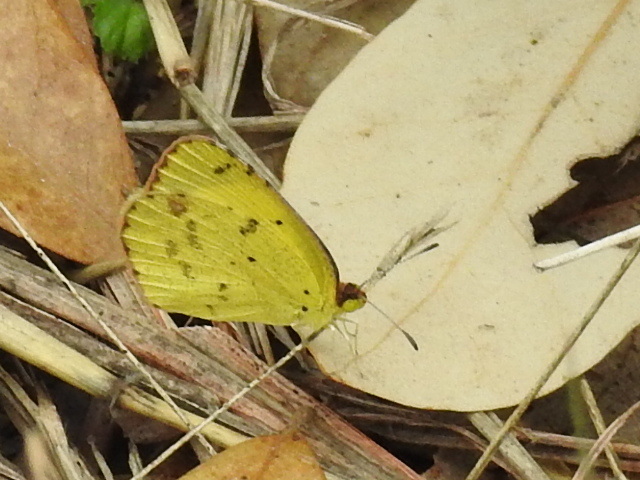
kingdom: Animalia
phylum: Arthropoda
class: Insecta
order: Lepidoptera
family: Pieridae
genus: Pyrisitia
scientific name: Pyrisitia lisa
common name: Little yellow
